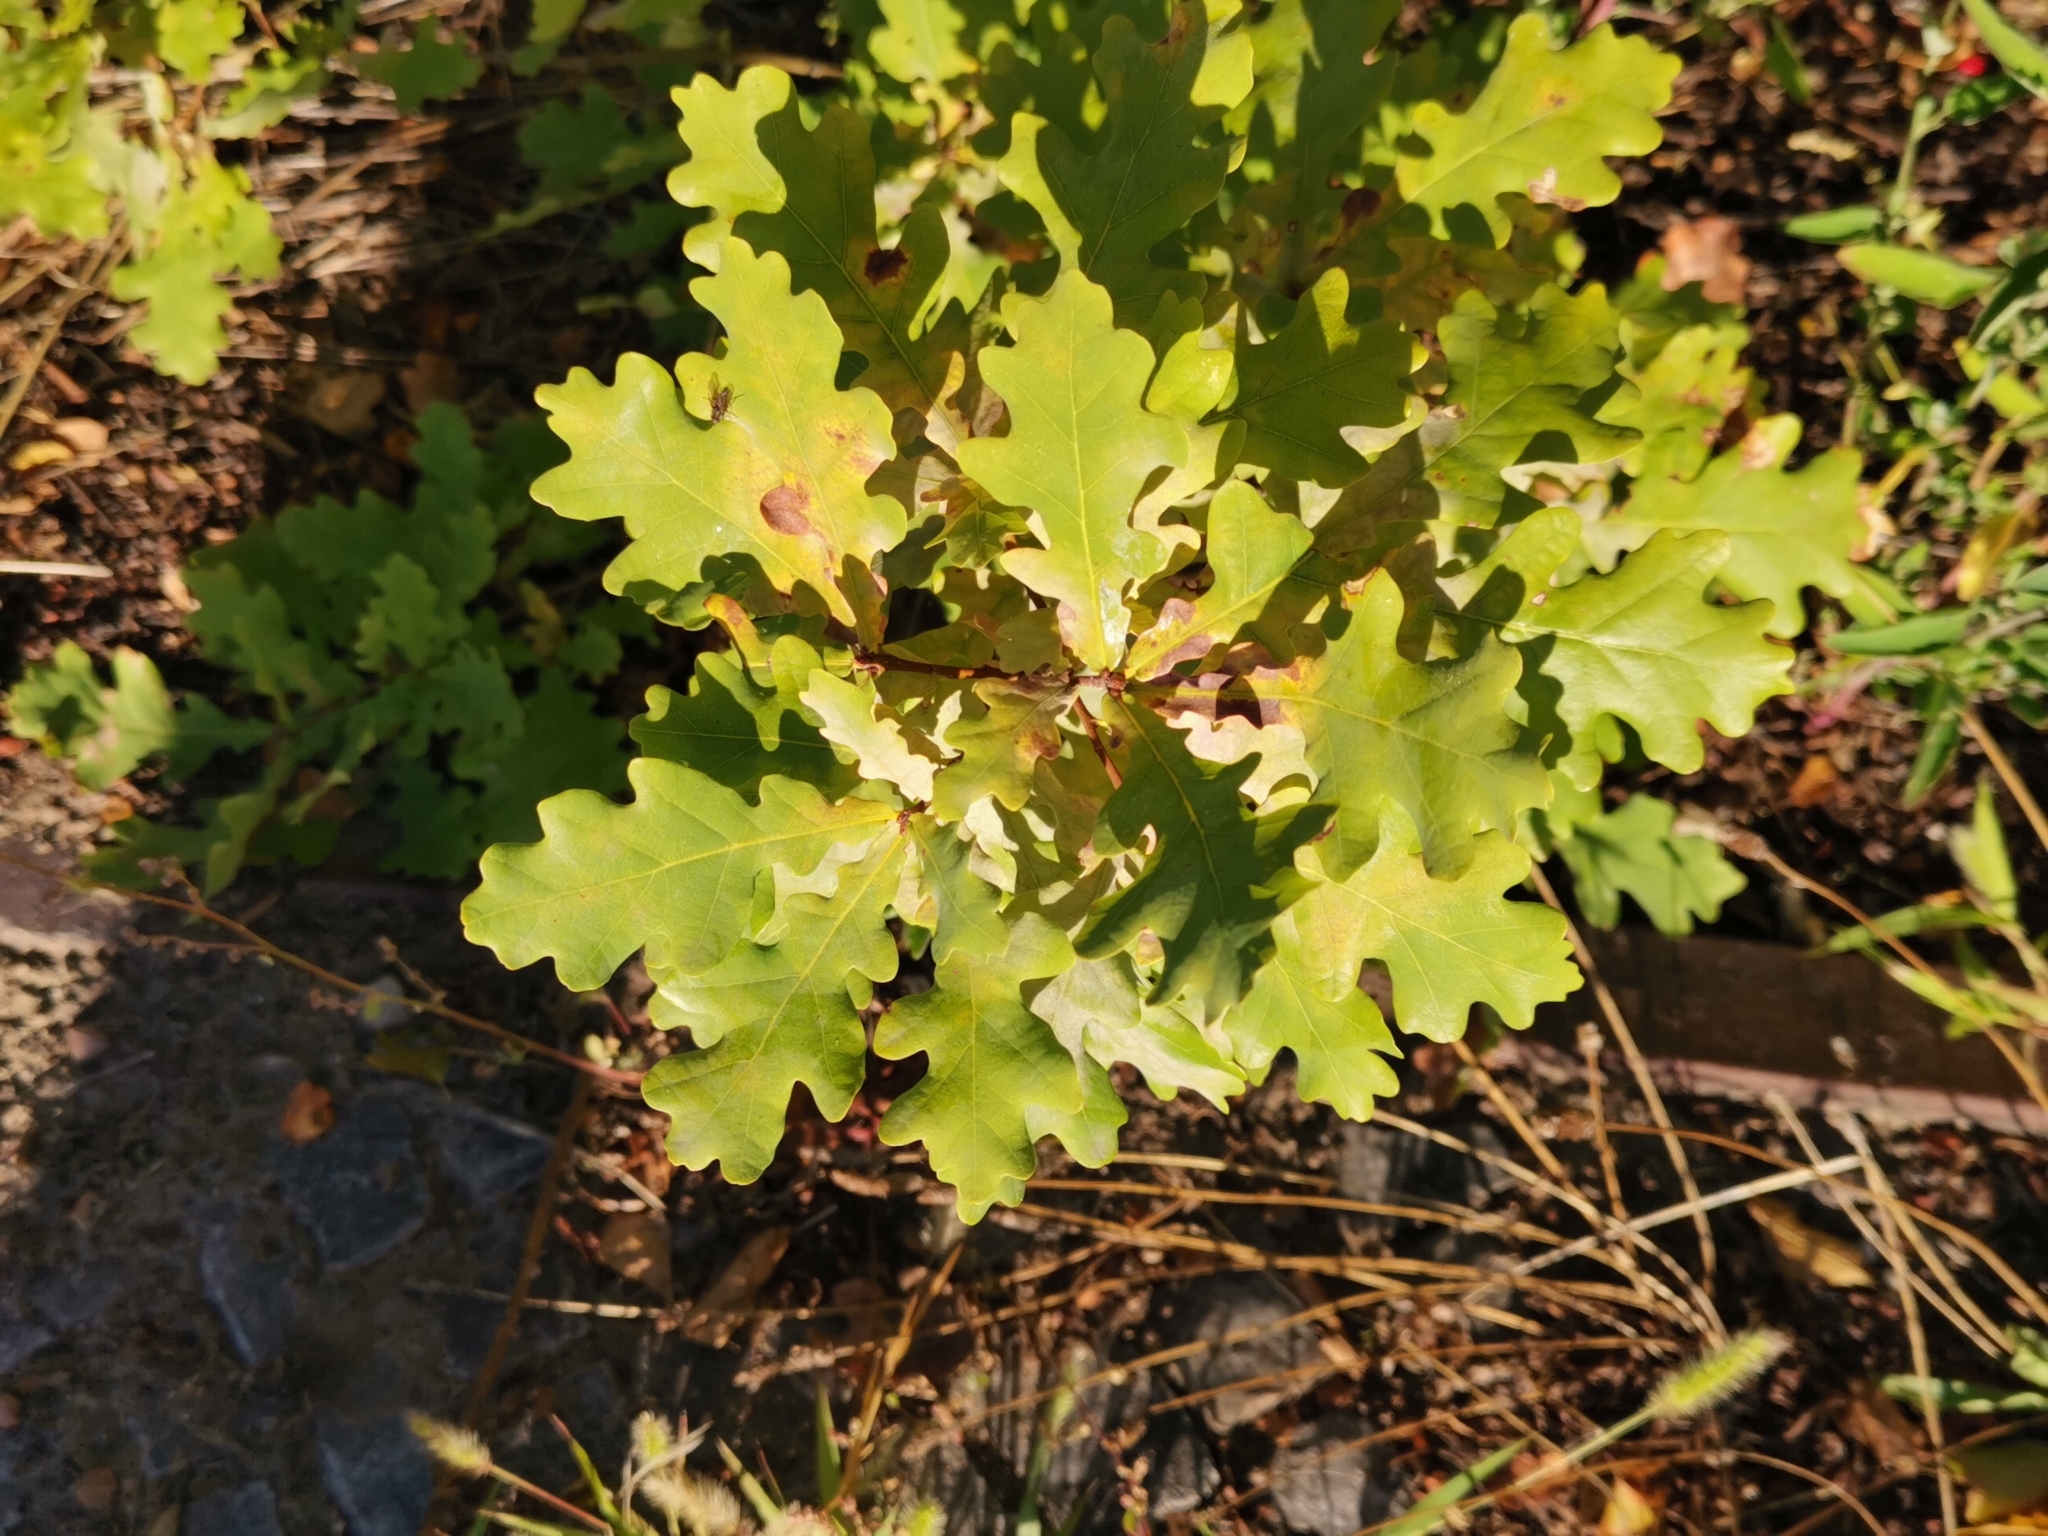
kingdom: Plantae
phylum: Tracheophyta
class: Magnoliopsida
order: Fagales
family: Fagaceae
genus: Quercus
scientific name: Quercus robur
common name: Pedunculate oak
